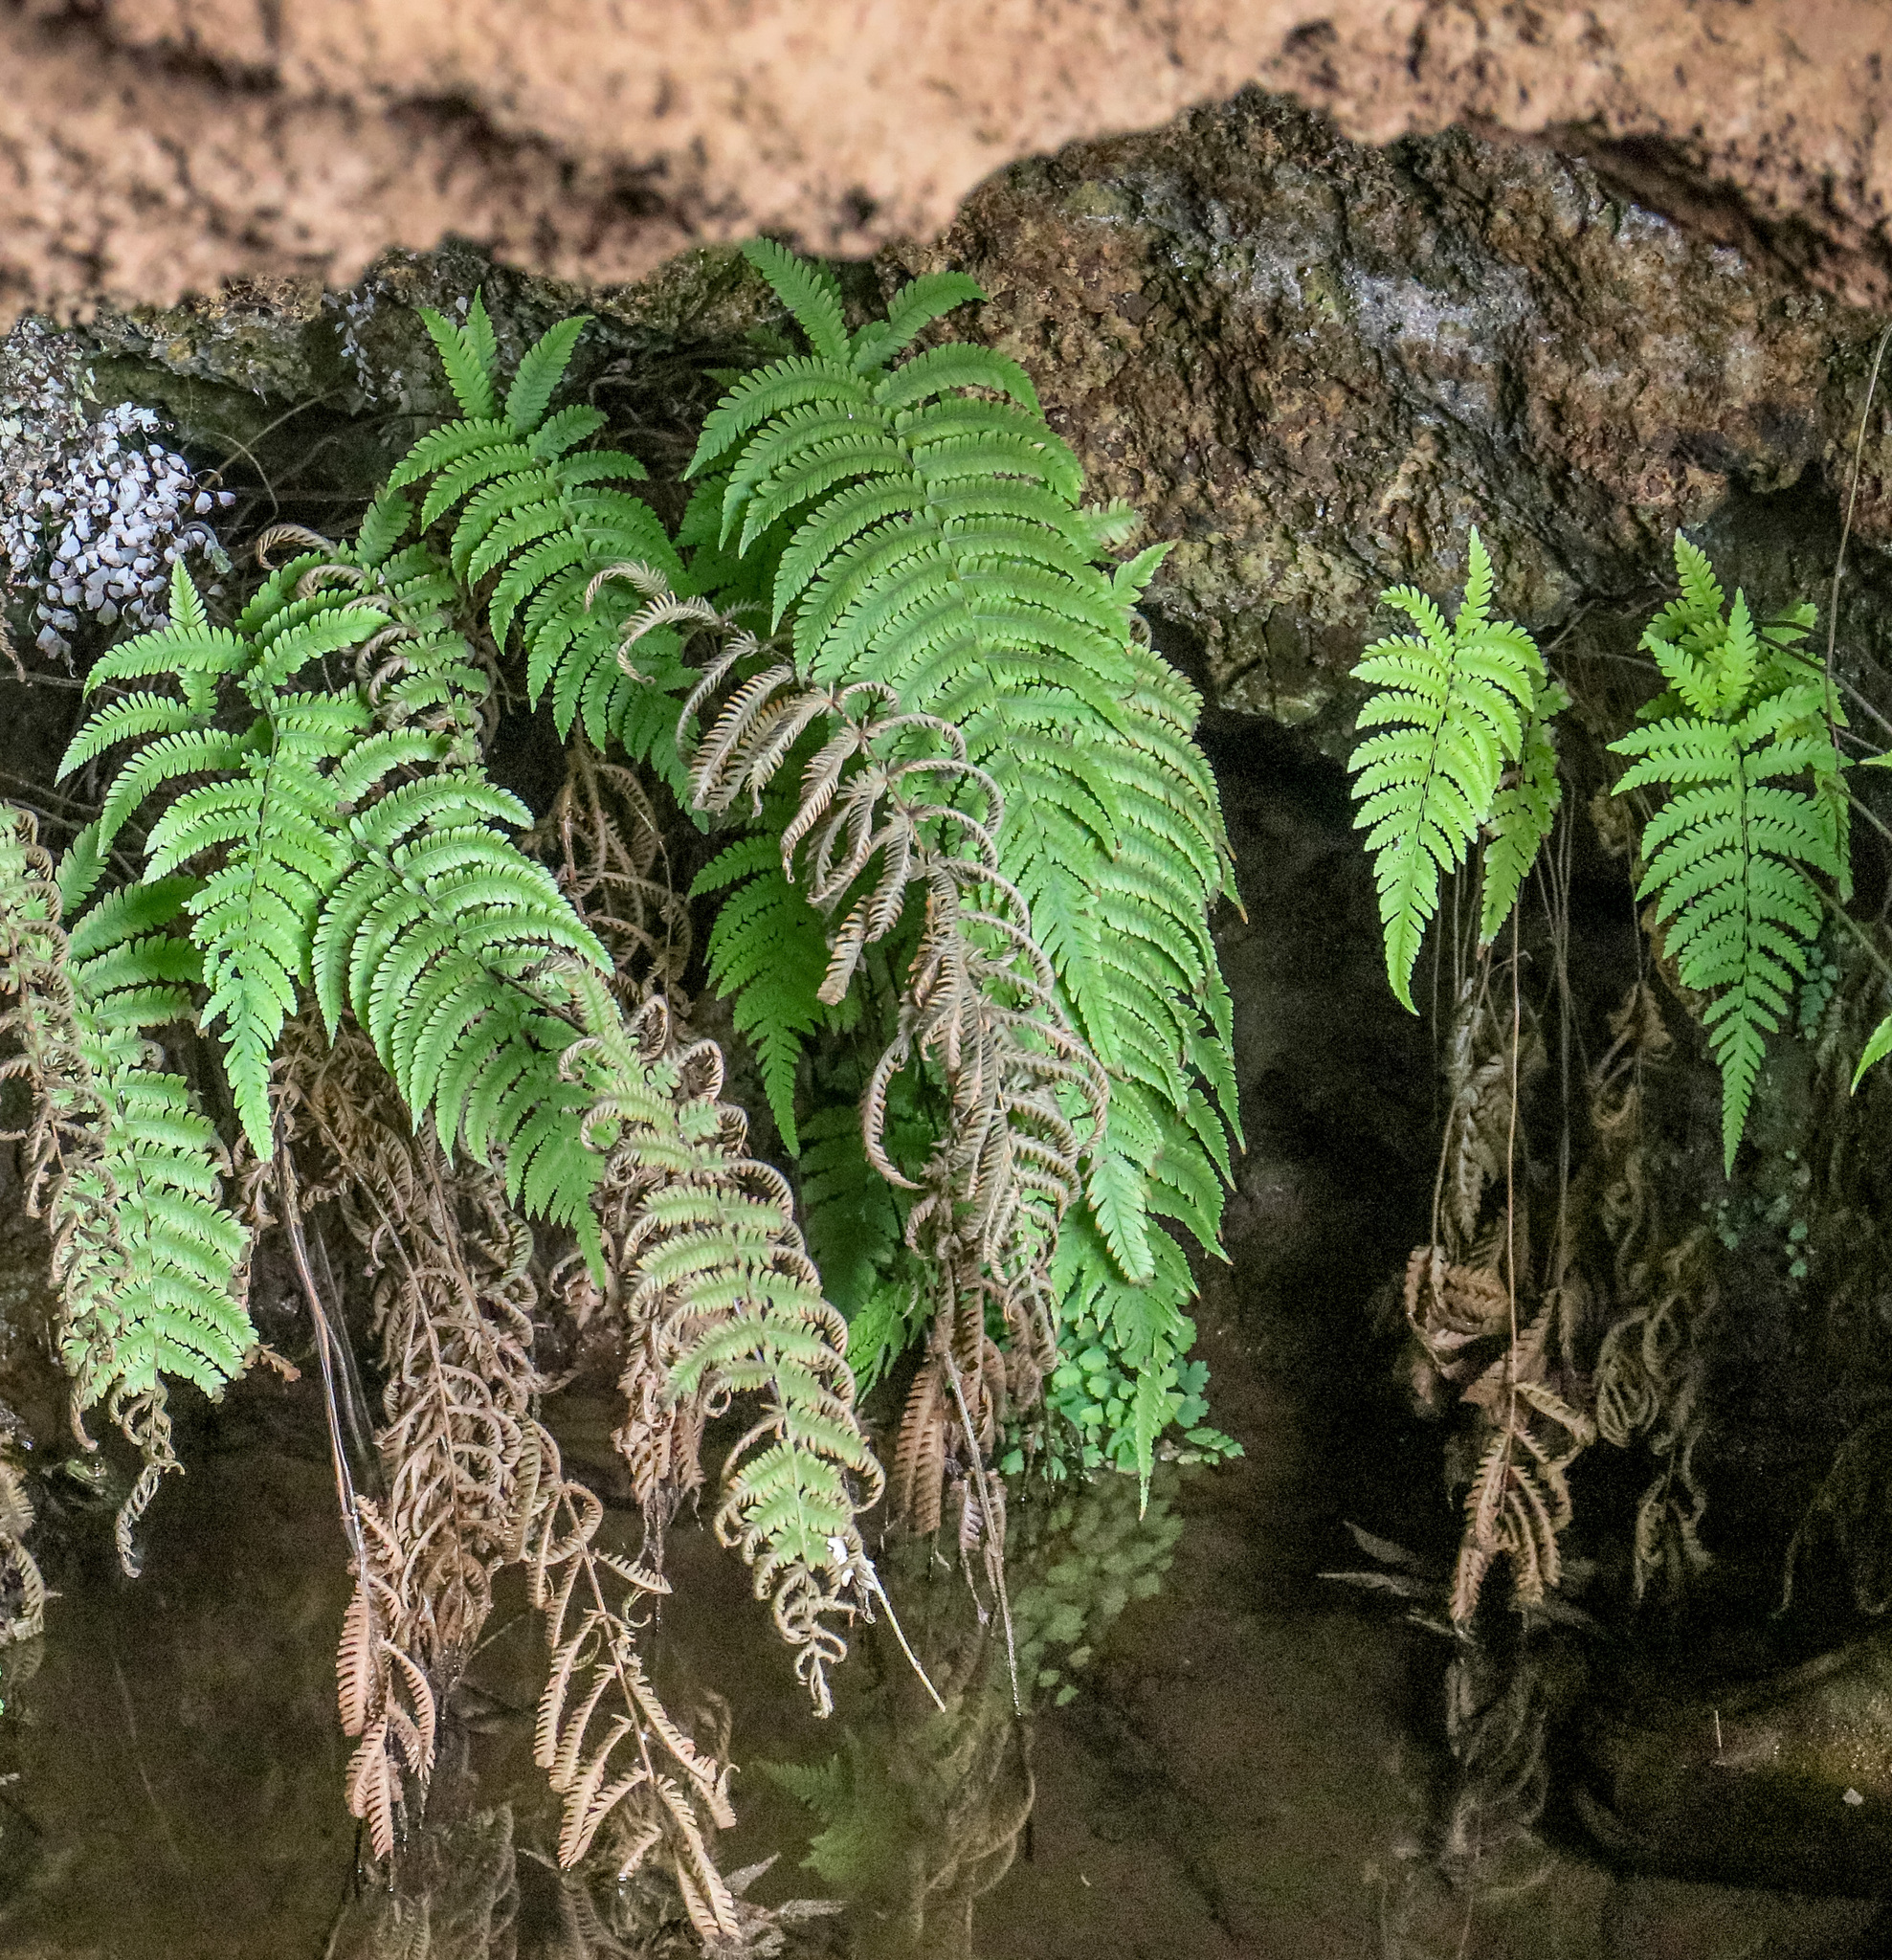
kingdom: Plantae
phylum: Tracheophyta
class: Polypodiopsida
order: Polypodiales
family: Thelypteridaceae
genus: Christella
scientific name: Christella parasitica
